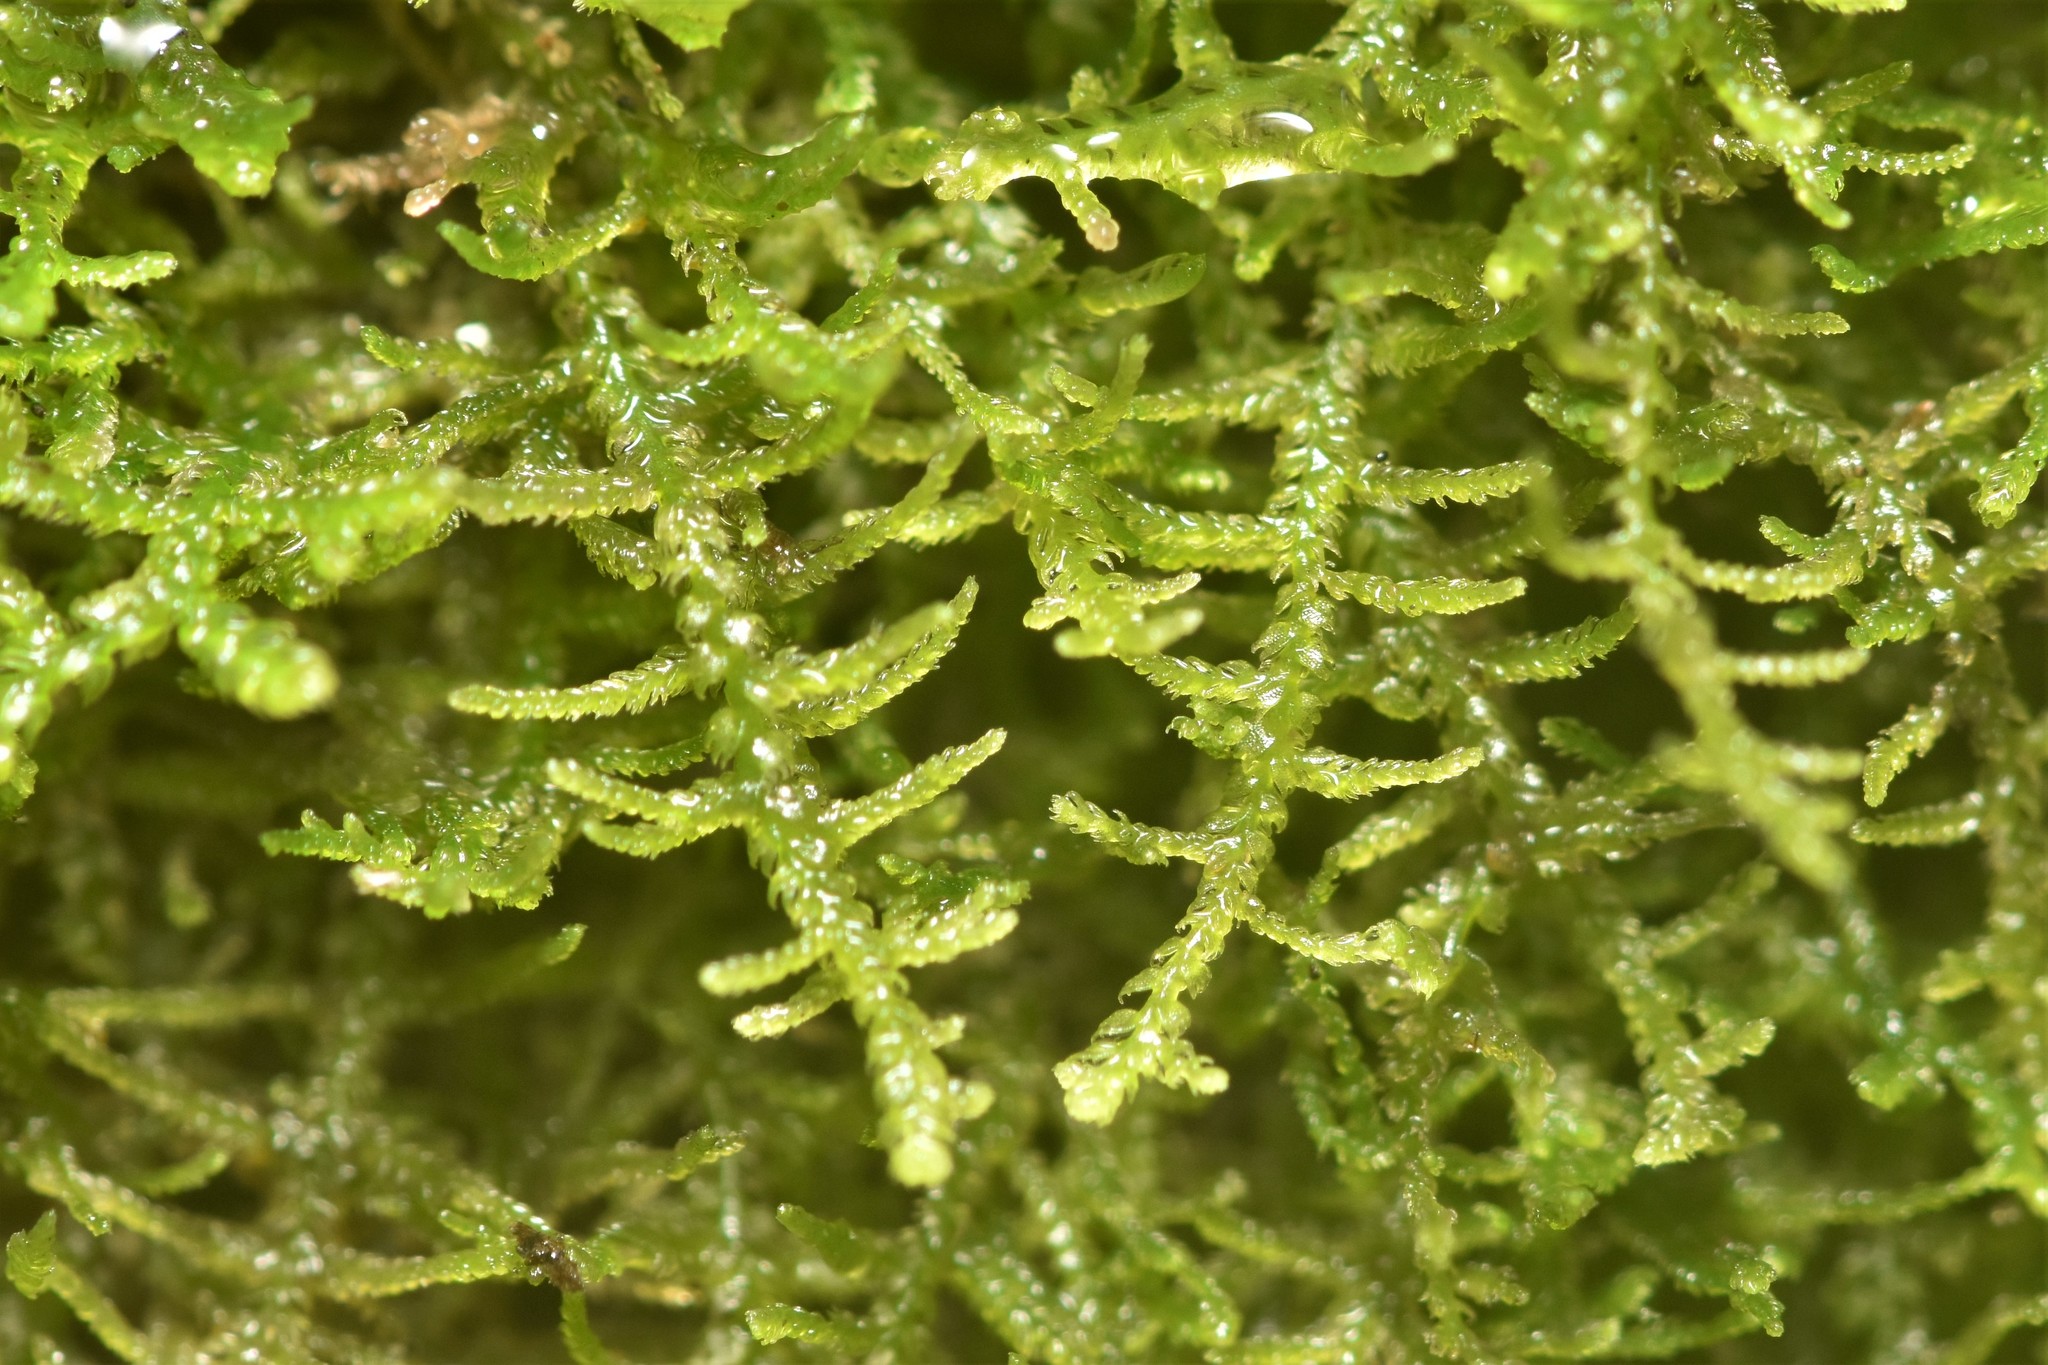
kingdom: Plantae
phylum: Marchantiophyta
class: Jungermanniopsida
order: Jungermanniales
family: Lepidoziaceae
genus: Lepidozia
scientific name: Lepidozia reptans
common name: Creeping fingerwort
